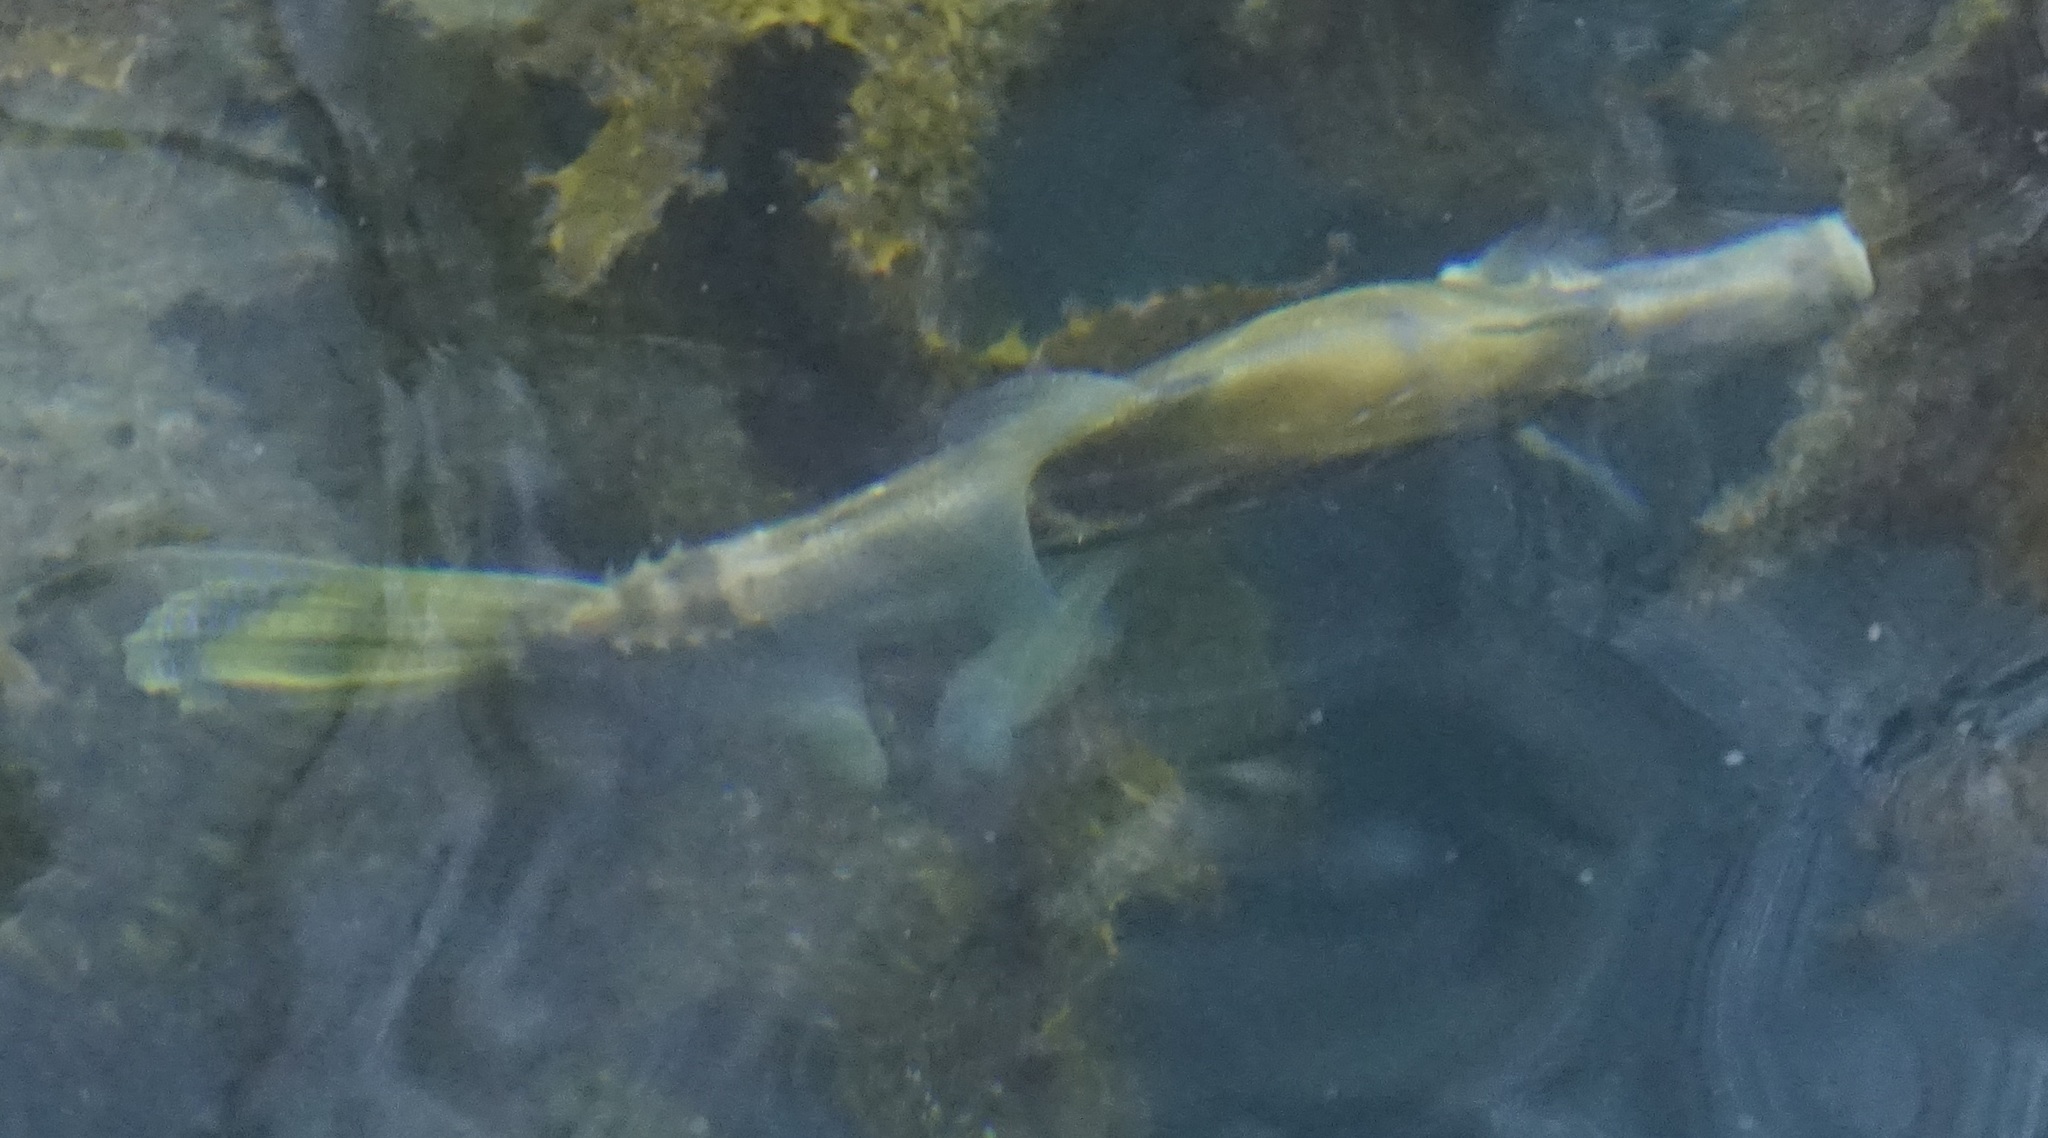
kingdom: Animalia
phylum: Chordata
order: Tetraodontiformes
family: Monacanthidae
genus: Monacanthus
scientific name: Monacanthus chinensis
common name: Centreboard leatherjacket
